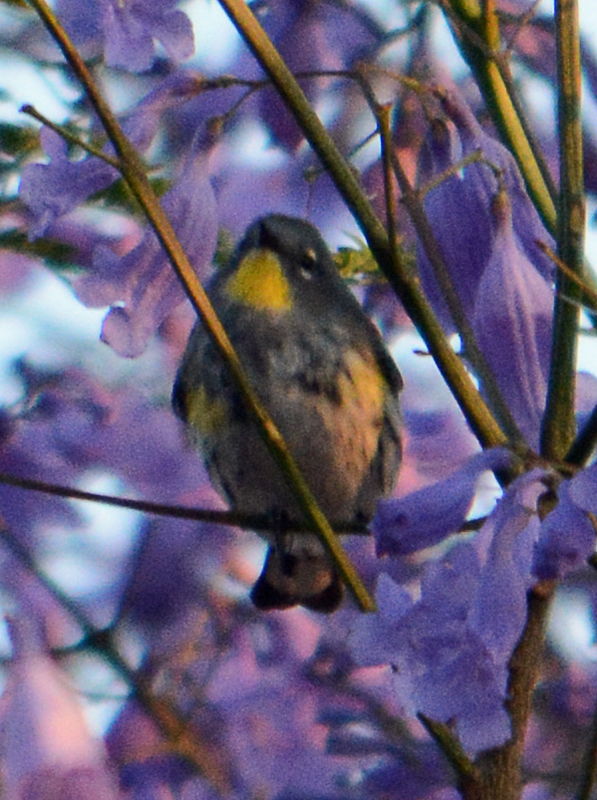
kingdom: Animalia
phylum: Chordata
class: Aves
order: Passeriformes
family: Parulidae
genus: Setophaga
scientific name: Setophaga auduboni
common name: Audubon's warbler
